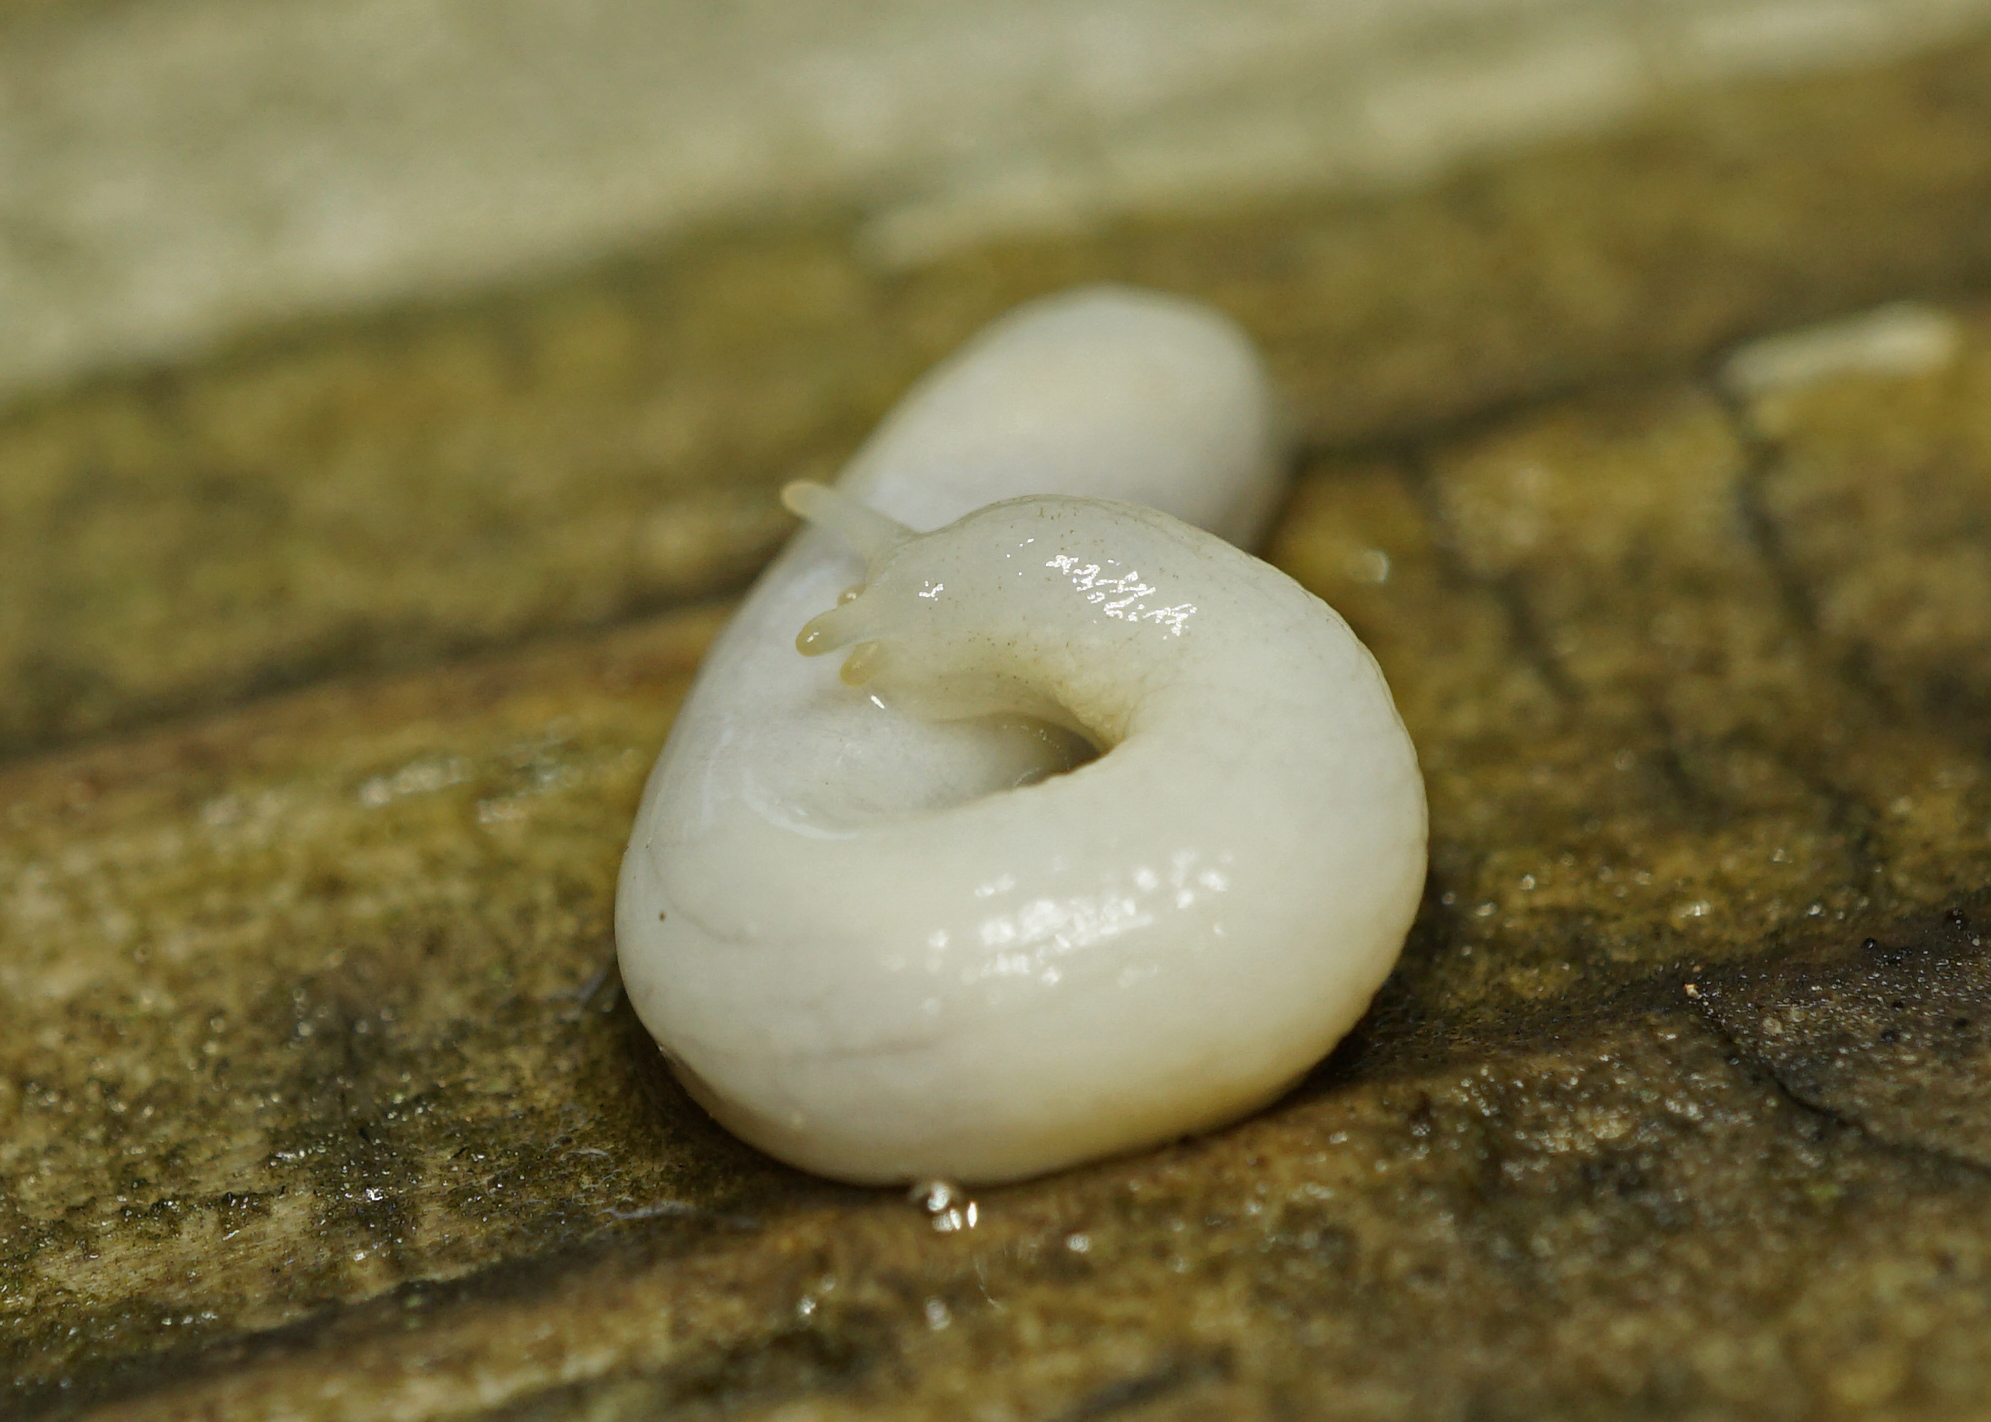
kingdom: Animalia
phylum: Mollusca
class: Gastropoda
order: Stylommatophora
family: Oxychilidae
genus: Selenochlamys
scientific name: Selenochlamys ysbryda
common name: Ghost slug
